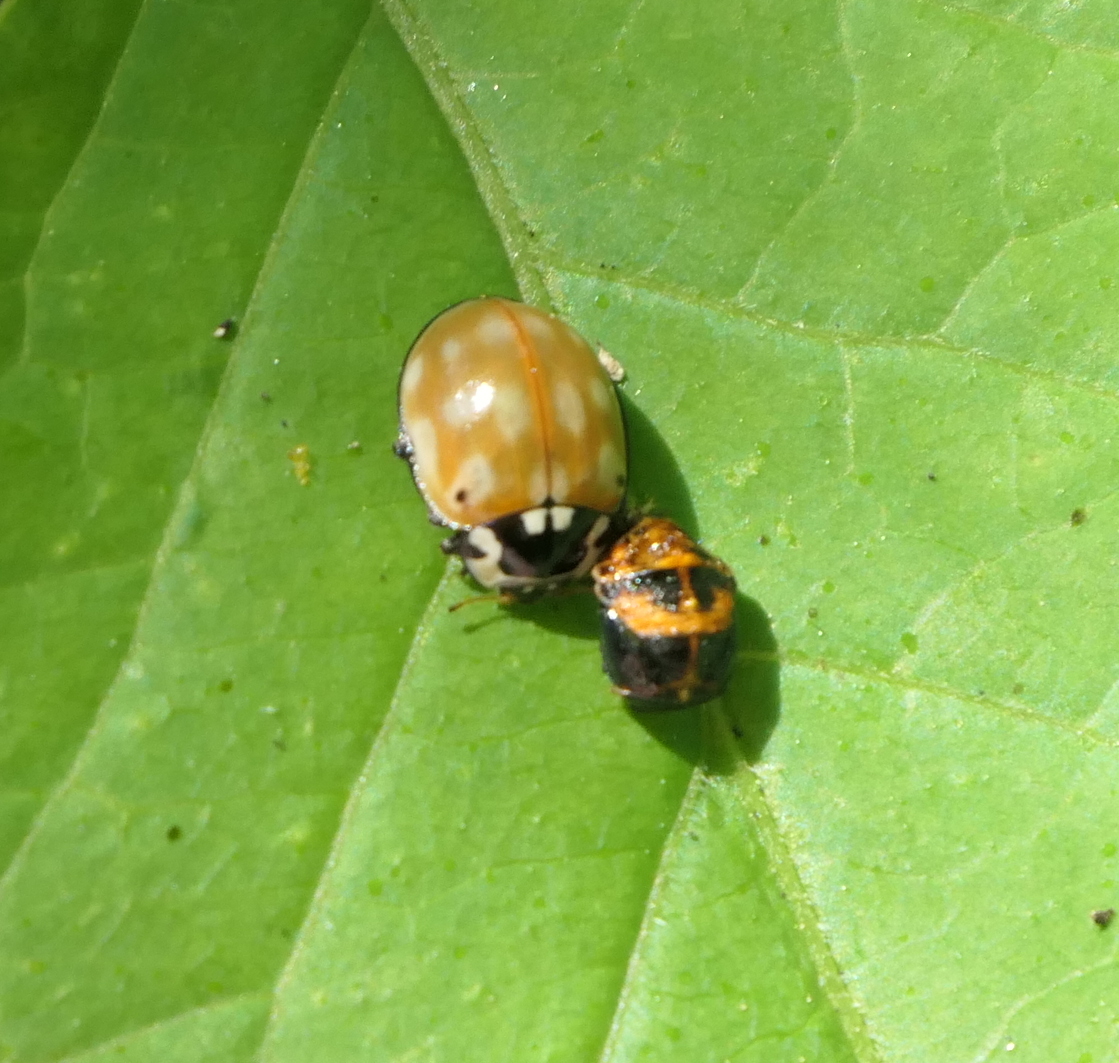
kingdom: Animalia
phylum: Arthropoda
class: Insecta
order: Coleoptera
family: Coccinellidae
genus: Anatis
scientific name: Anatis ocellata
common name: Eyed ladybird
